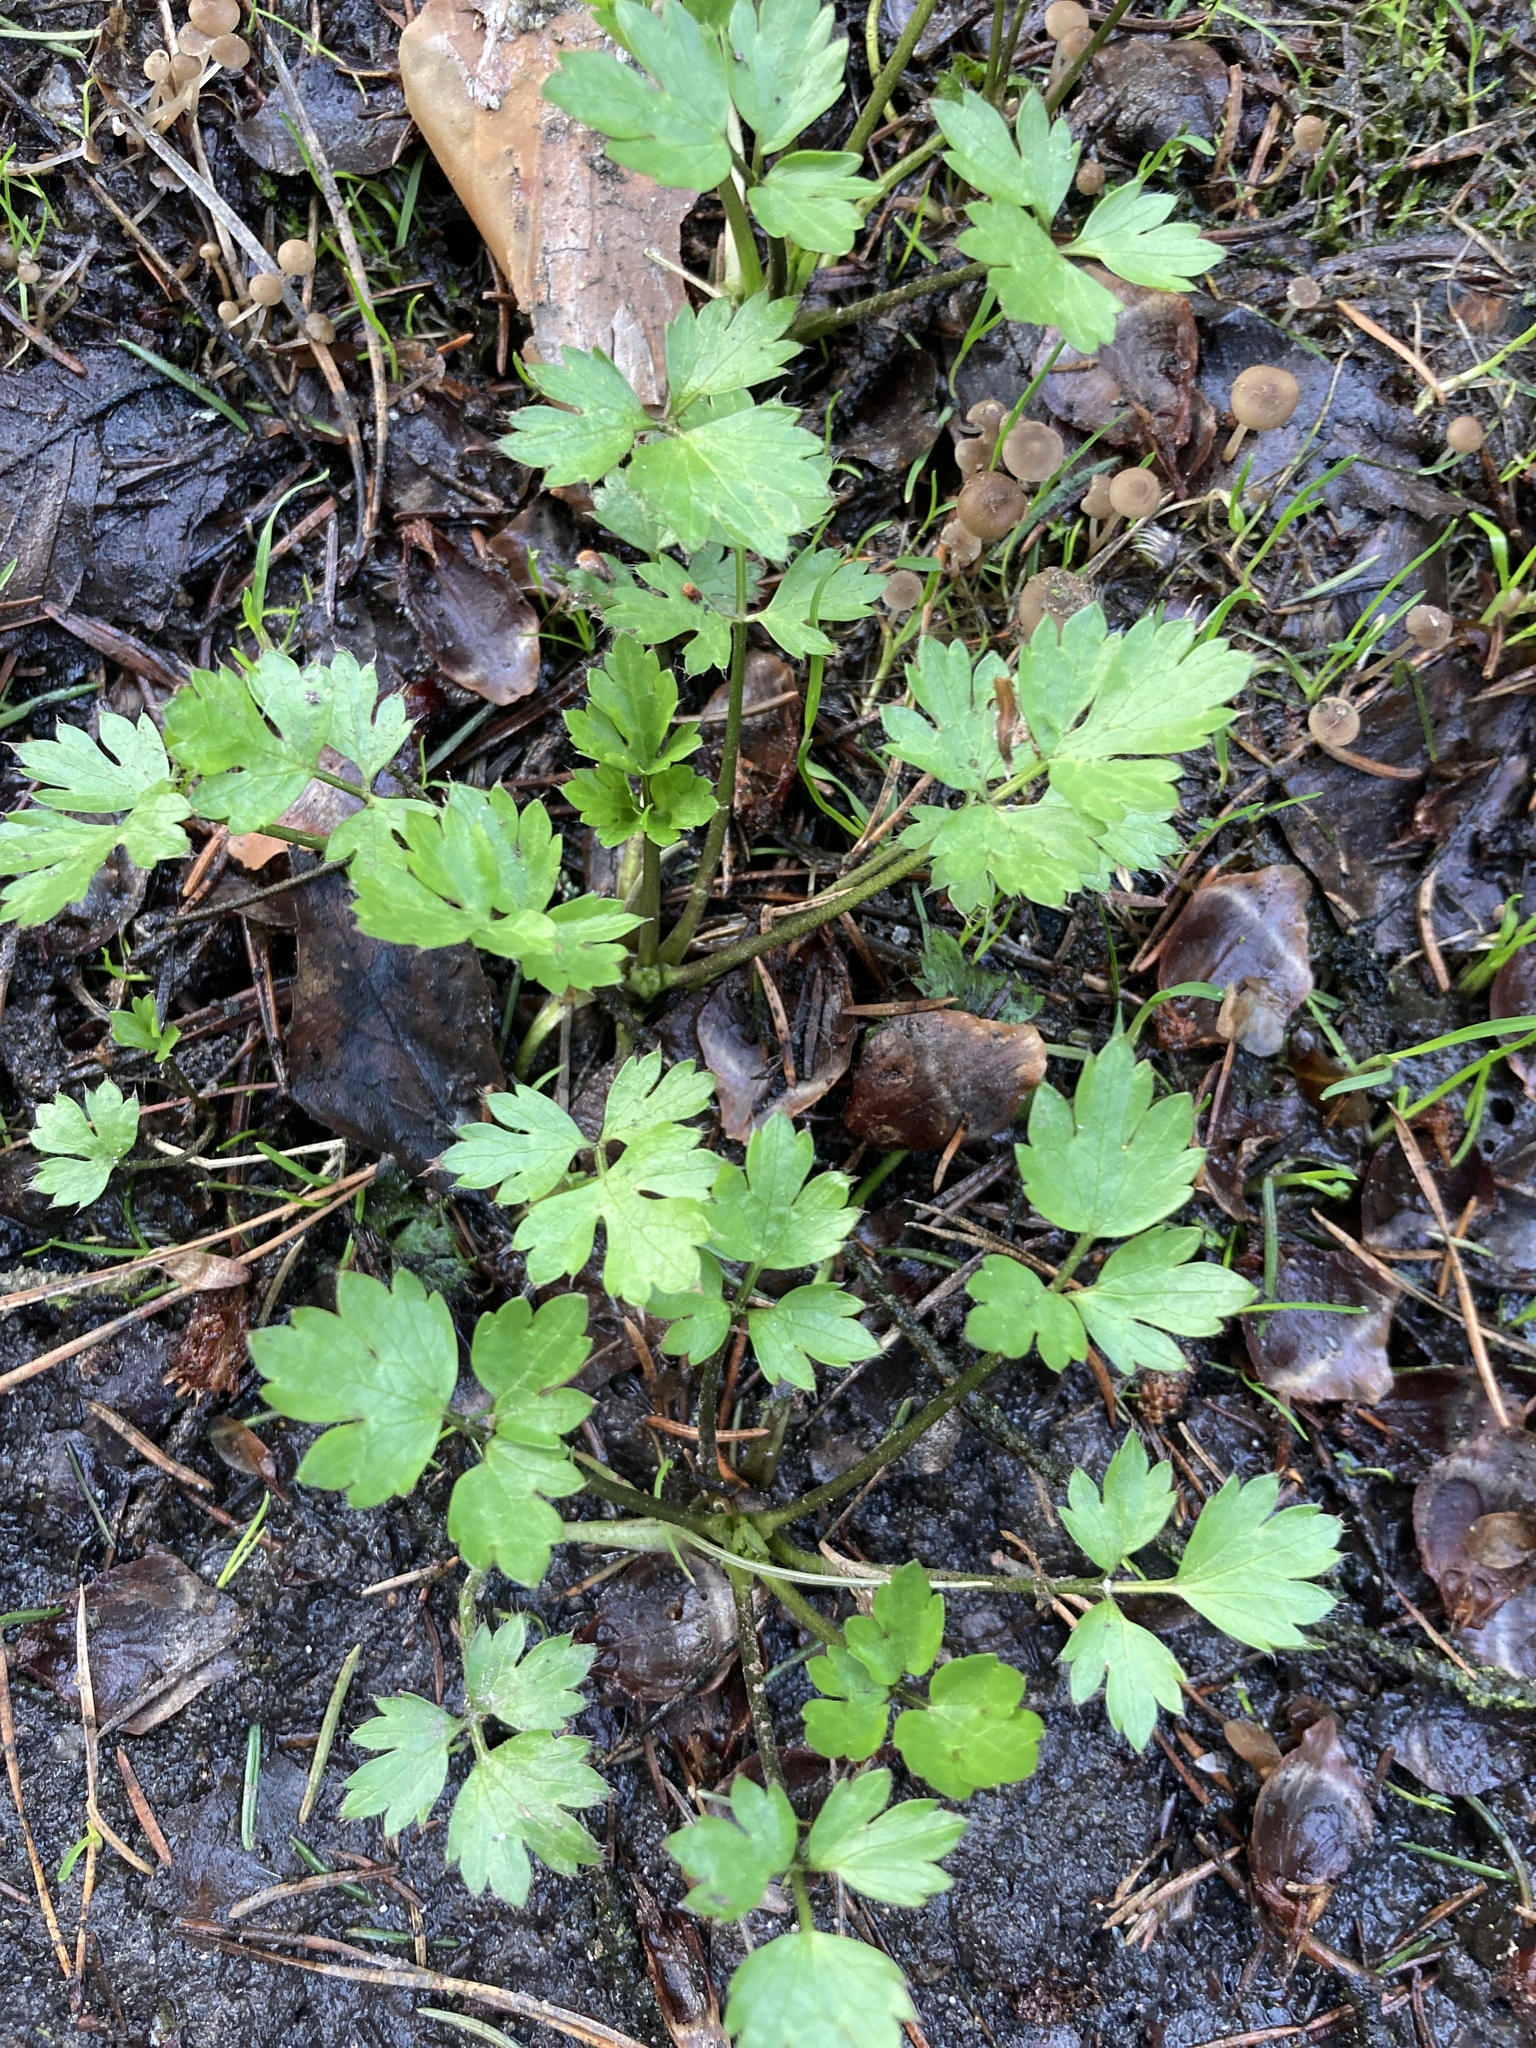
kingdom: Plantae
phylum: Tracheophyta
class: Magnoliopsida
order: Ranunculales
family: Ranunculaceae
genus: Ranunculus
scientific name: Ranunculus repens
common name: Creeping buttercup
